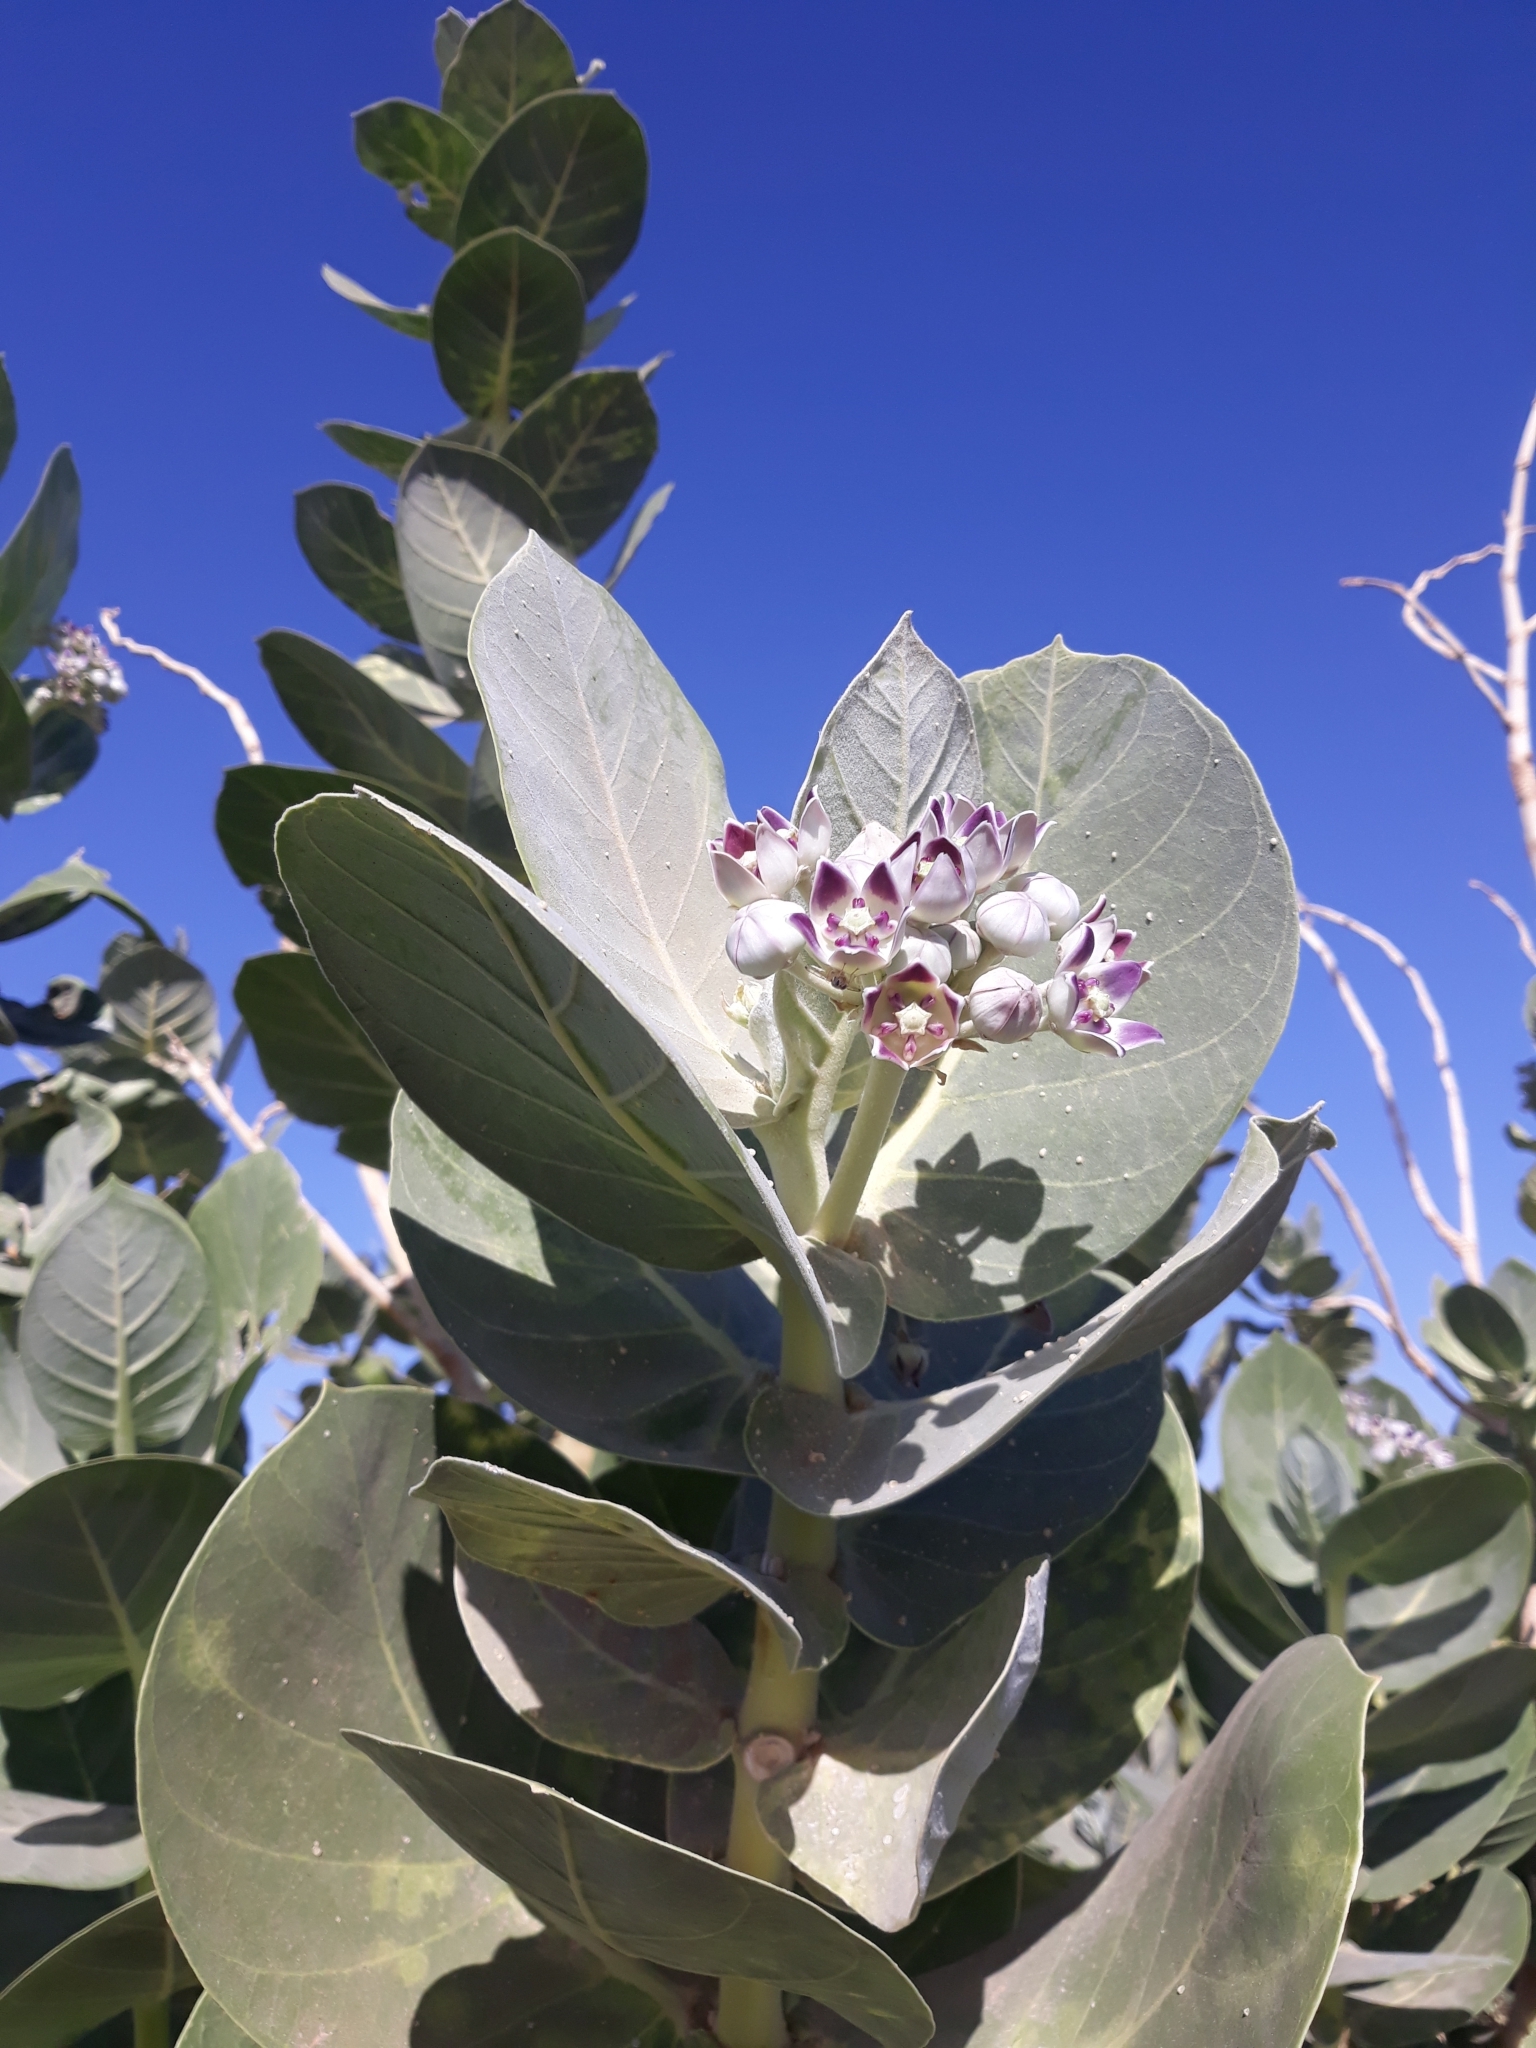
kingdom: Plantae
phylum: Tracheophyta
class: Magnoliopsida
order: Gentianales
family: Apocynaceae
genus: Calotropis
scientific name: Calotropis procera
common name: Roostertree
